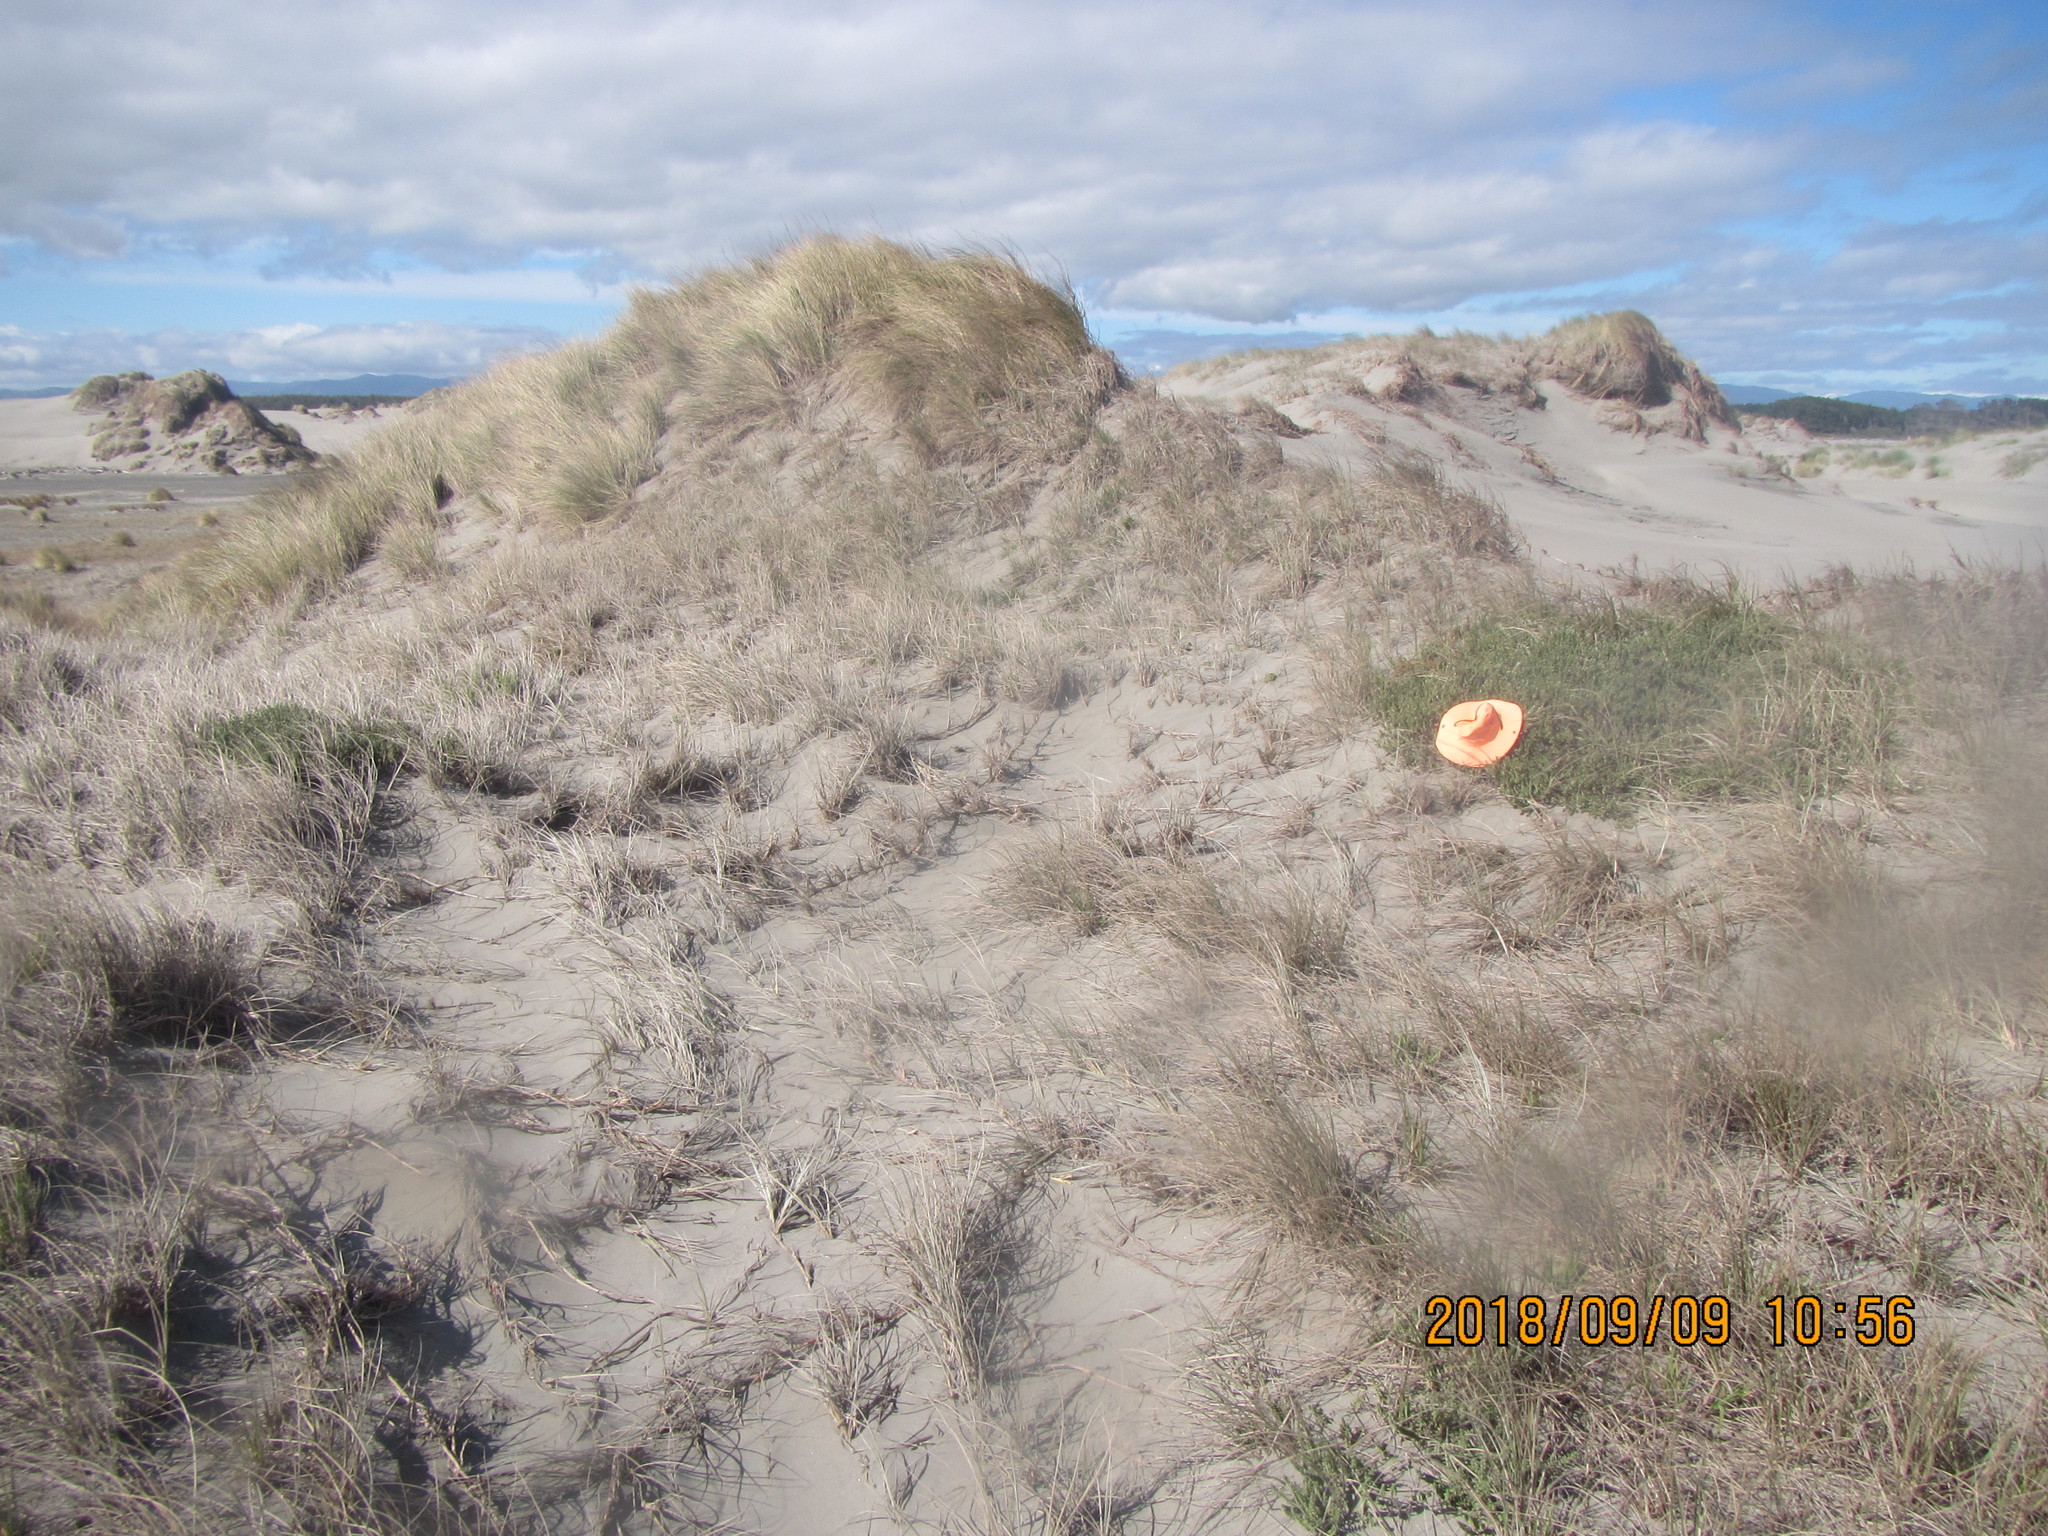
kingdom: Animalia
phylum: Arthropoda
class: Arachnida
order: Araneae
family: Theridiidae
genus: Latrodectus
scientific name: Latrodectus katipo
